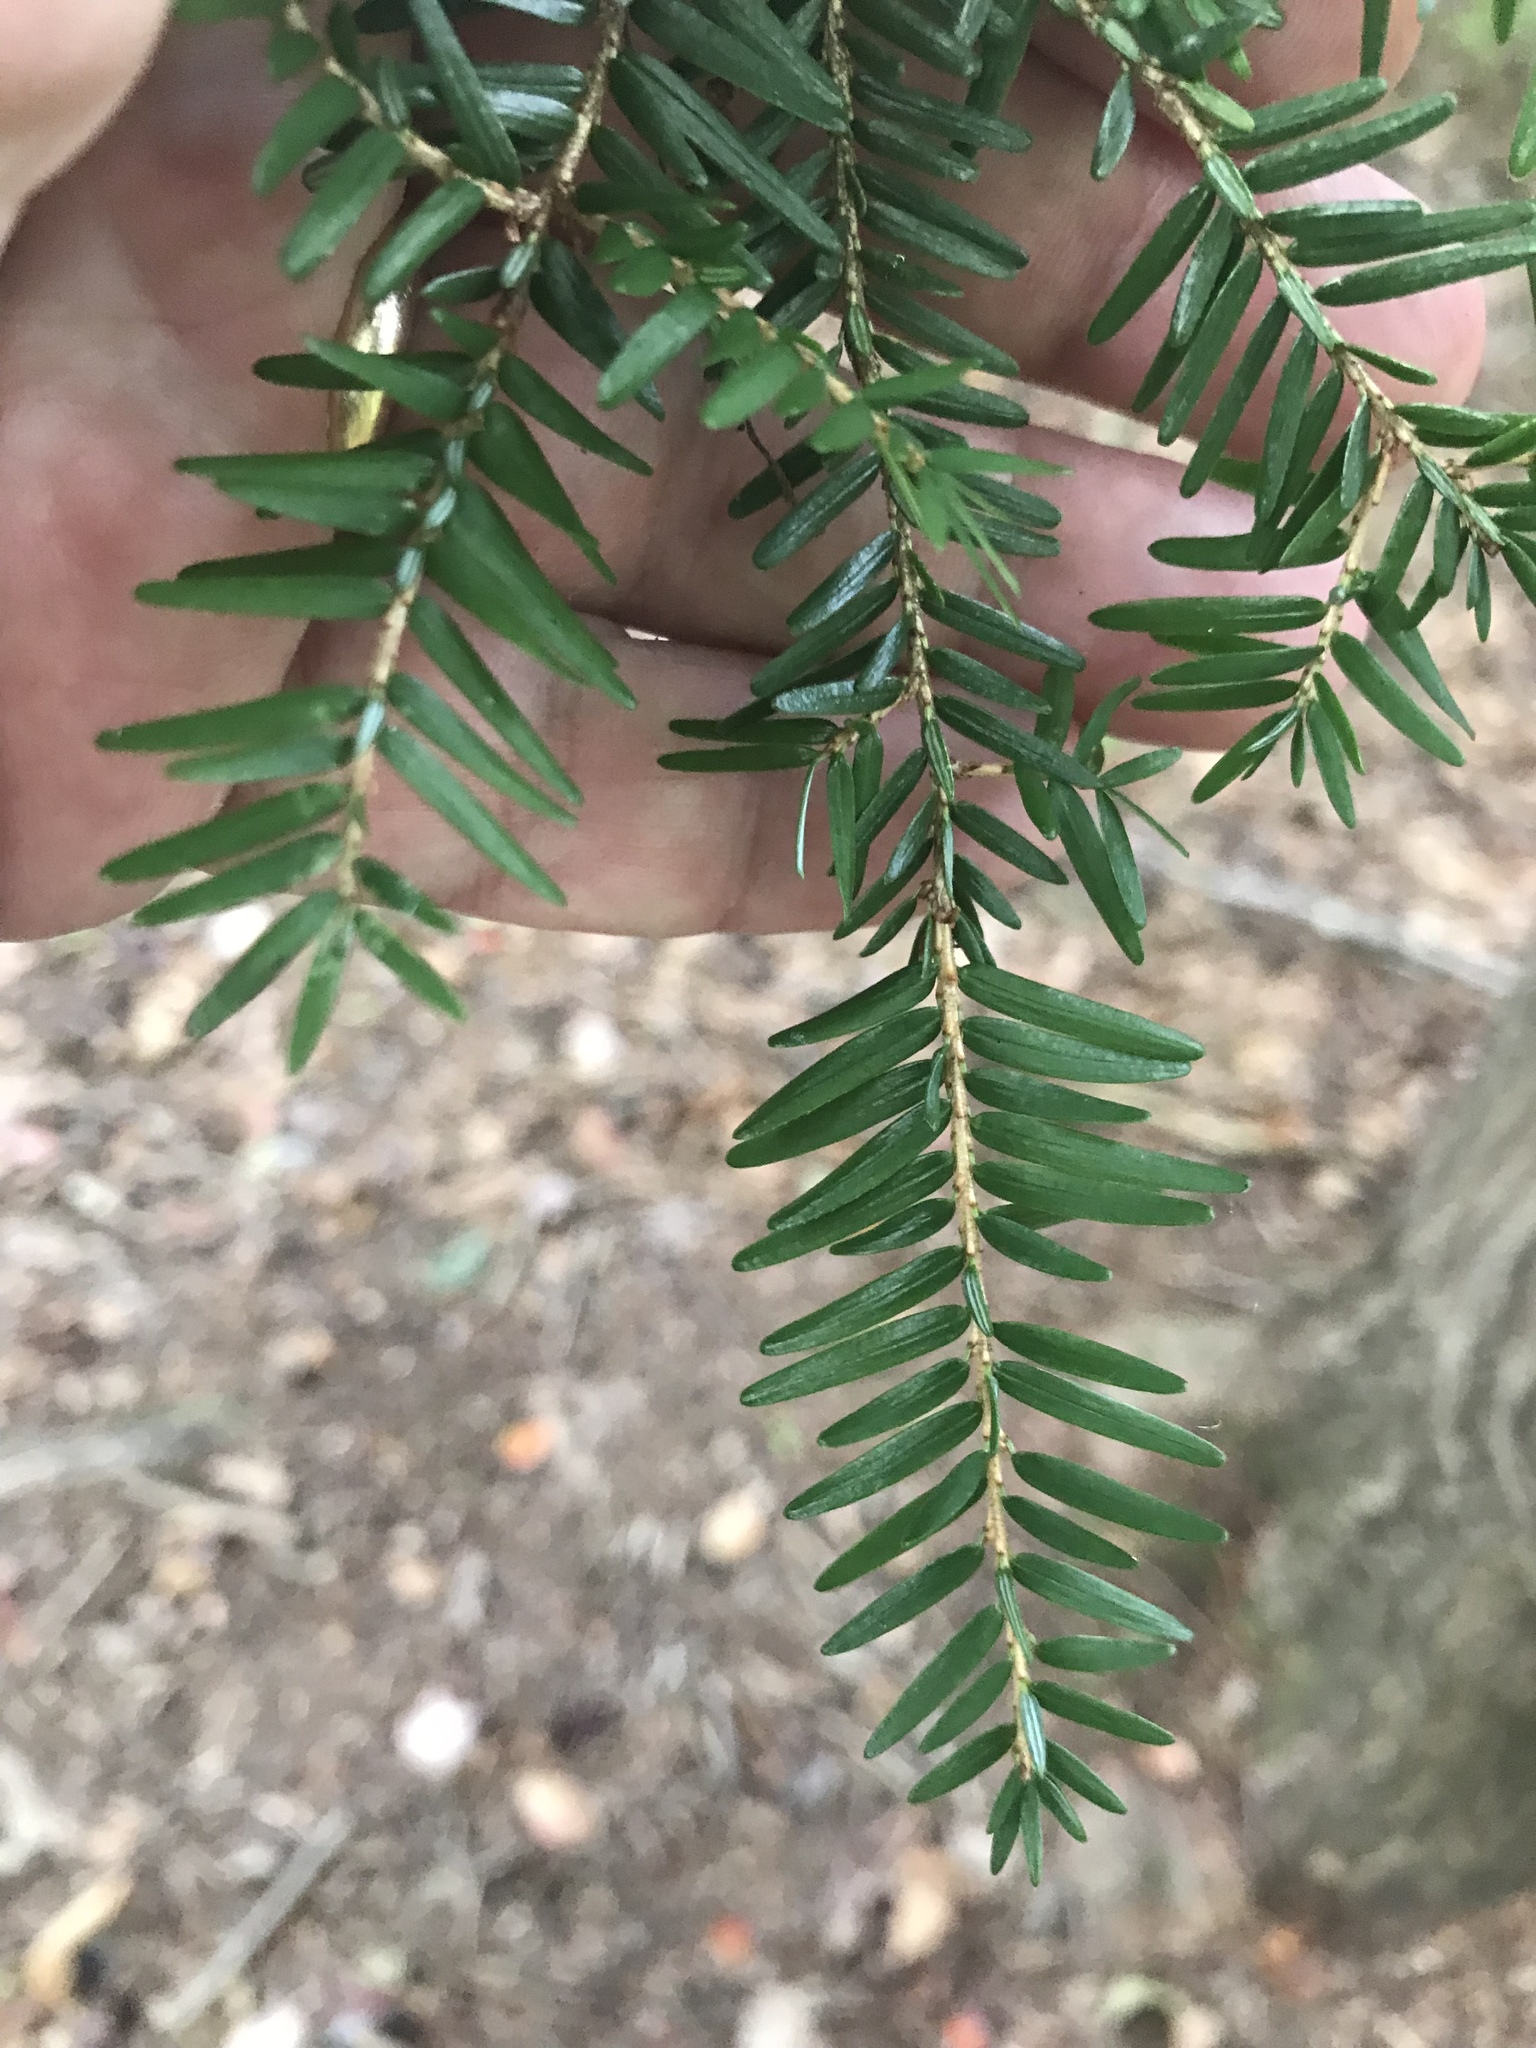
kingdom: Plantae
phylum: Tracheophyta
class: Pinopsida
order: Pinales
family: Pinaceae
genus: Tsuga
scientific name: Tsuga canadensis
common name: Eastern hemlock
